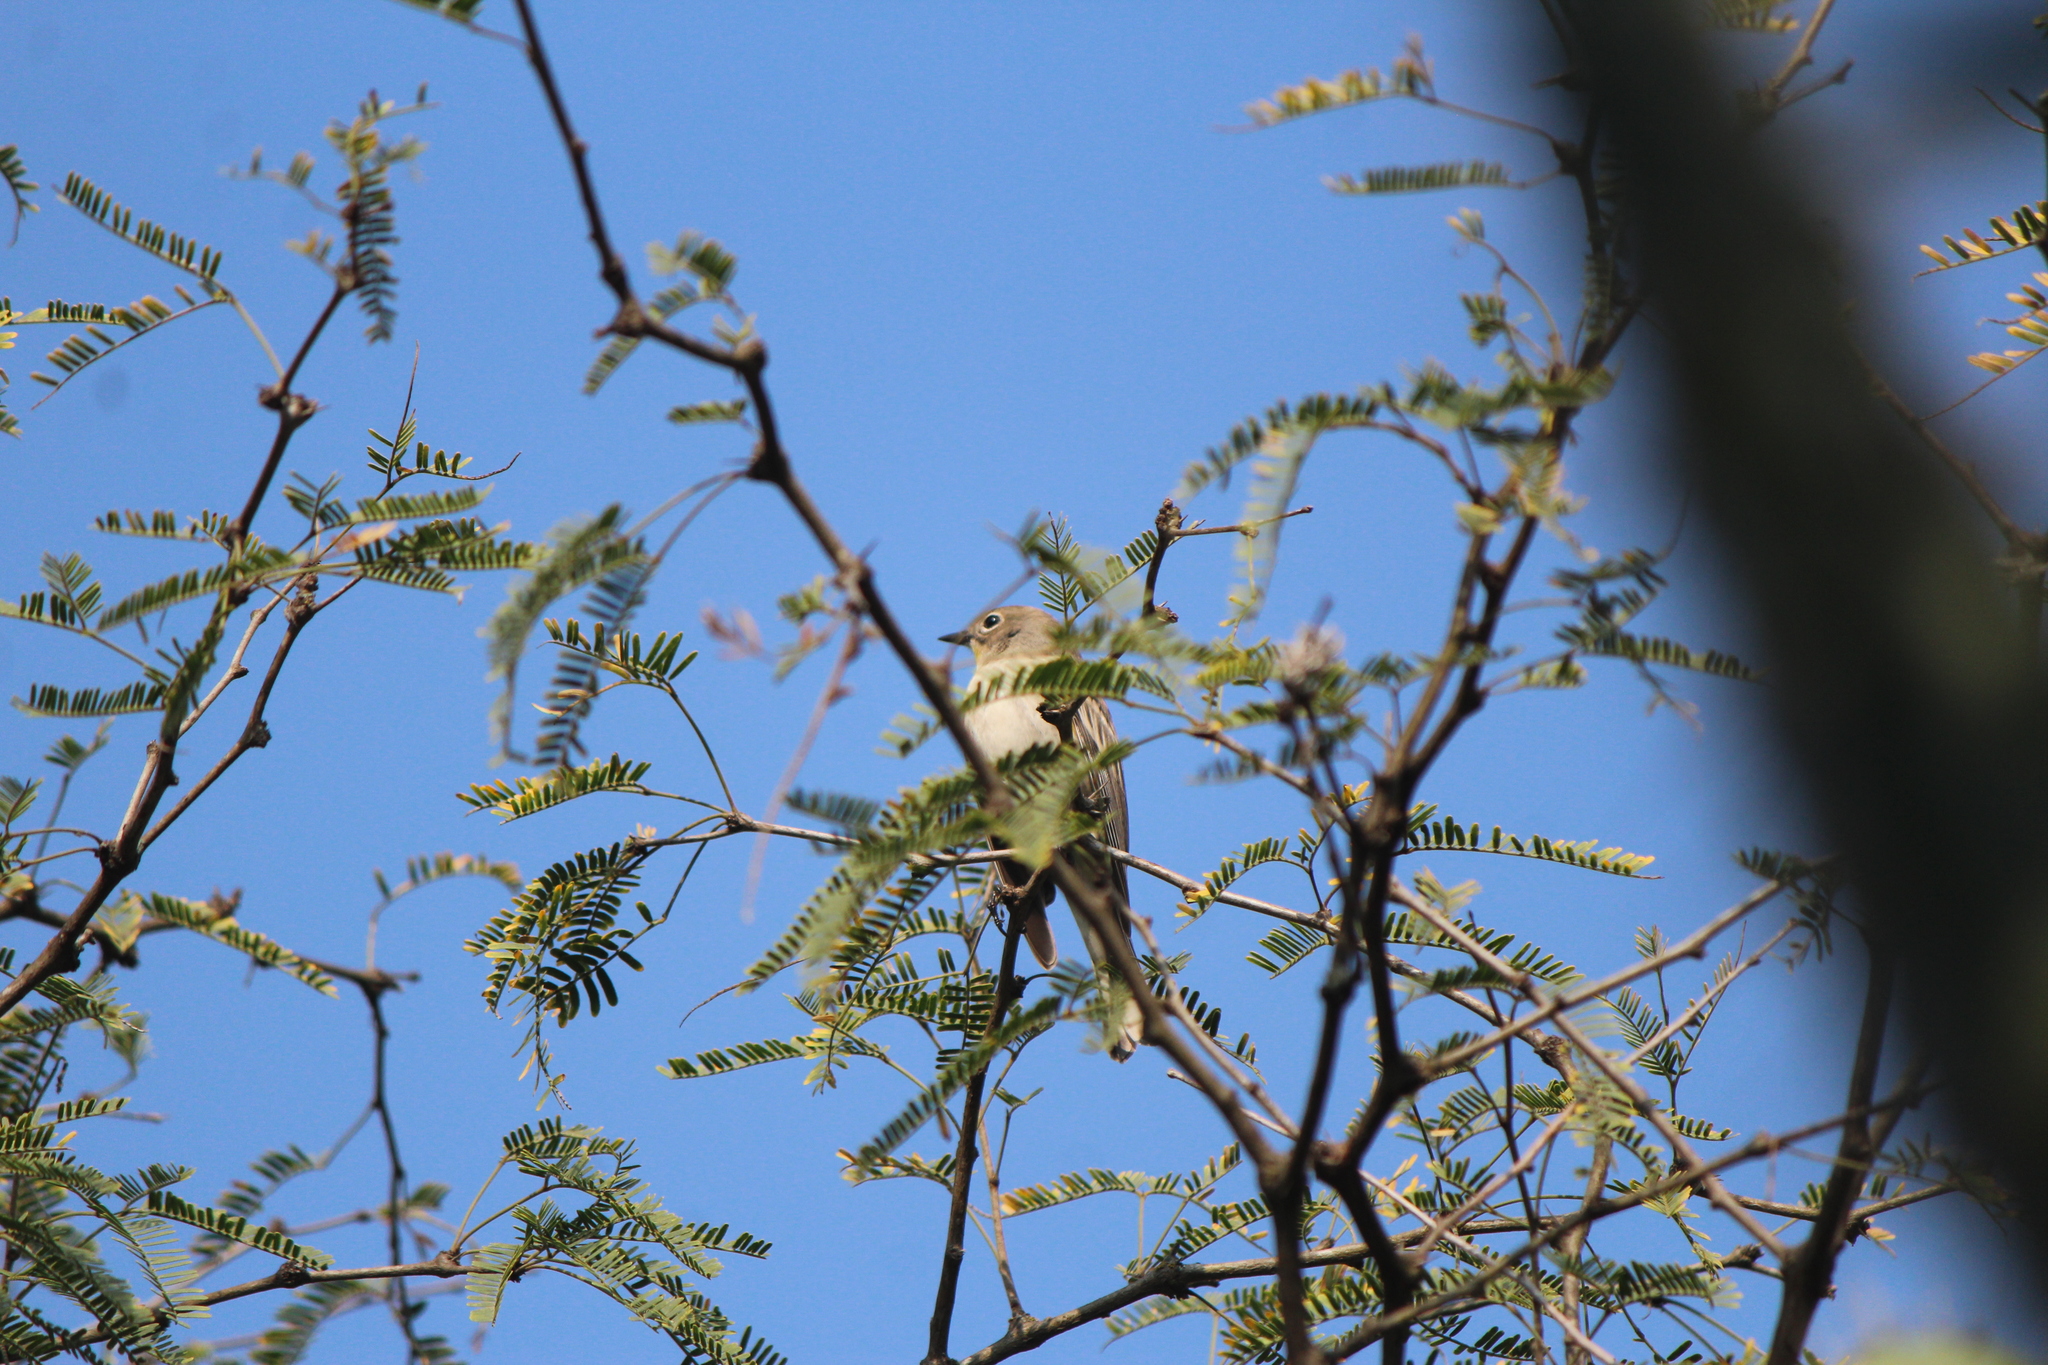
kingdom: Animalia
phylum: Chordata
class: Aves
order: Passeriformes
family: Parulidae
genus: Setophaga
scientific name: Setophaga auduboni
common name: Audubon's warbler
